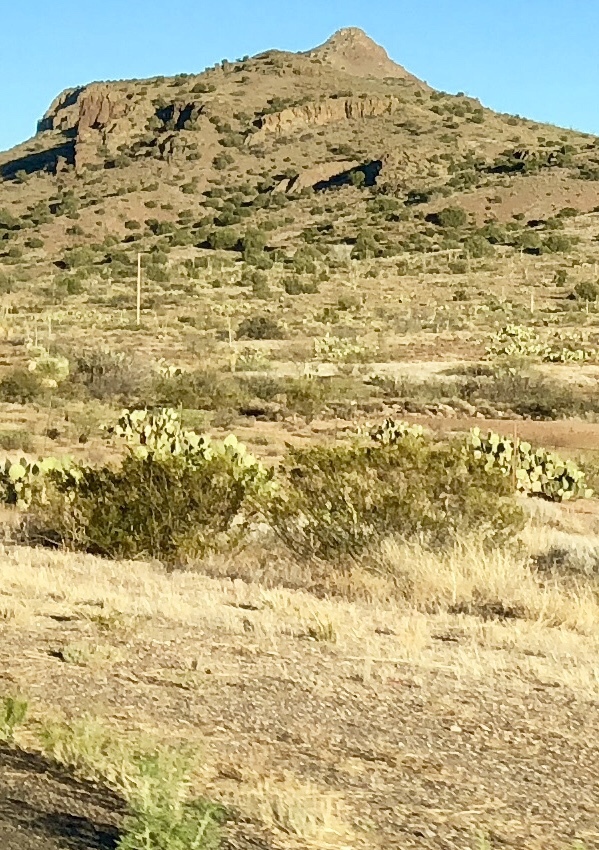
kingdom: Plantae
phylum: Tracheophyta
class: Magnoliopsida
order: Zygophyllales
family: Zygophyllaceae
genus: Larrea
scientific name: Larrea tridentata
